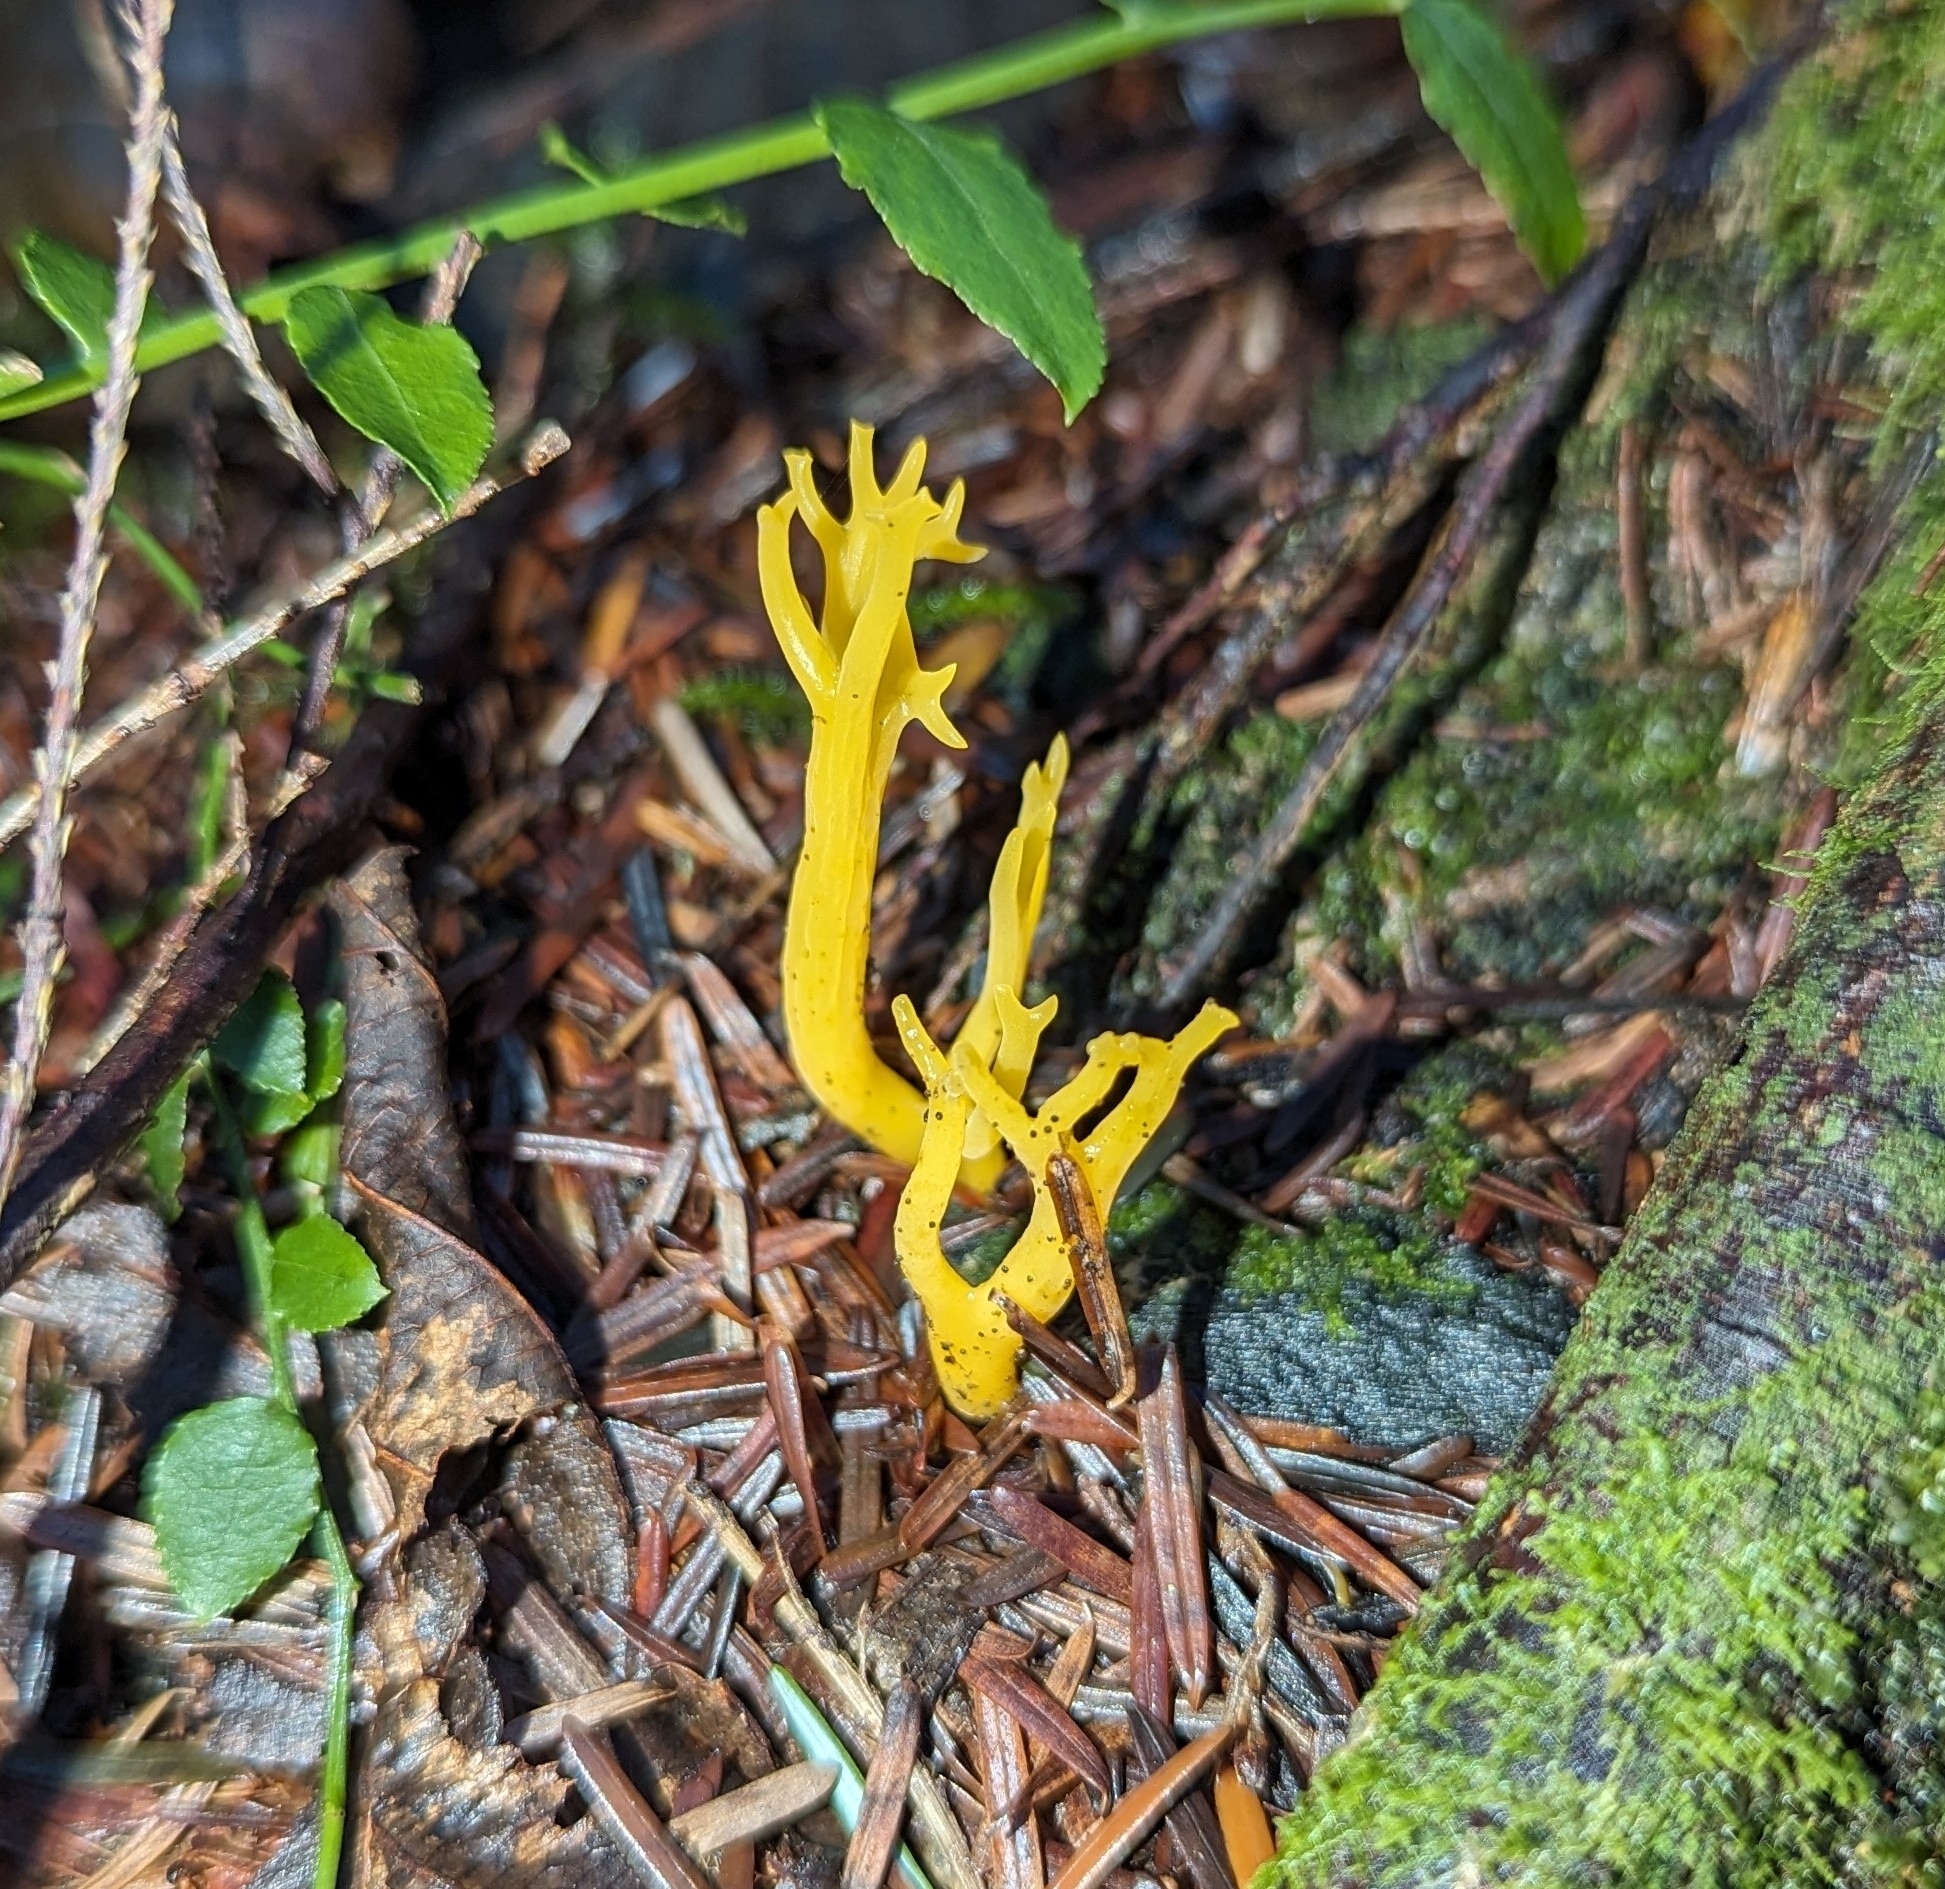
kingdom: Fungi
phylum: Basidiomycota
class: Dacrymycetes
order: Dacrymycetales
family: Dacrymycetaceae
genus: Calocera
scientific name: Calocera viscosa
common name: Yellow stagshorn
